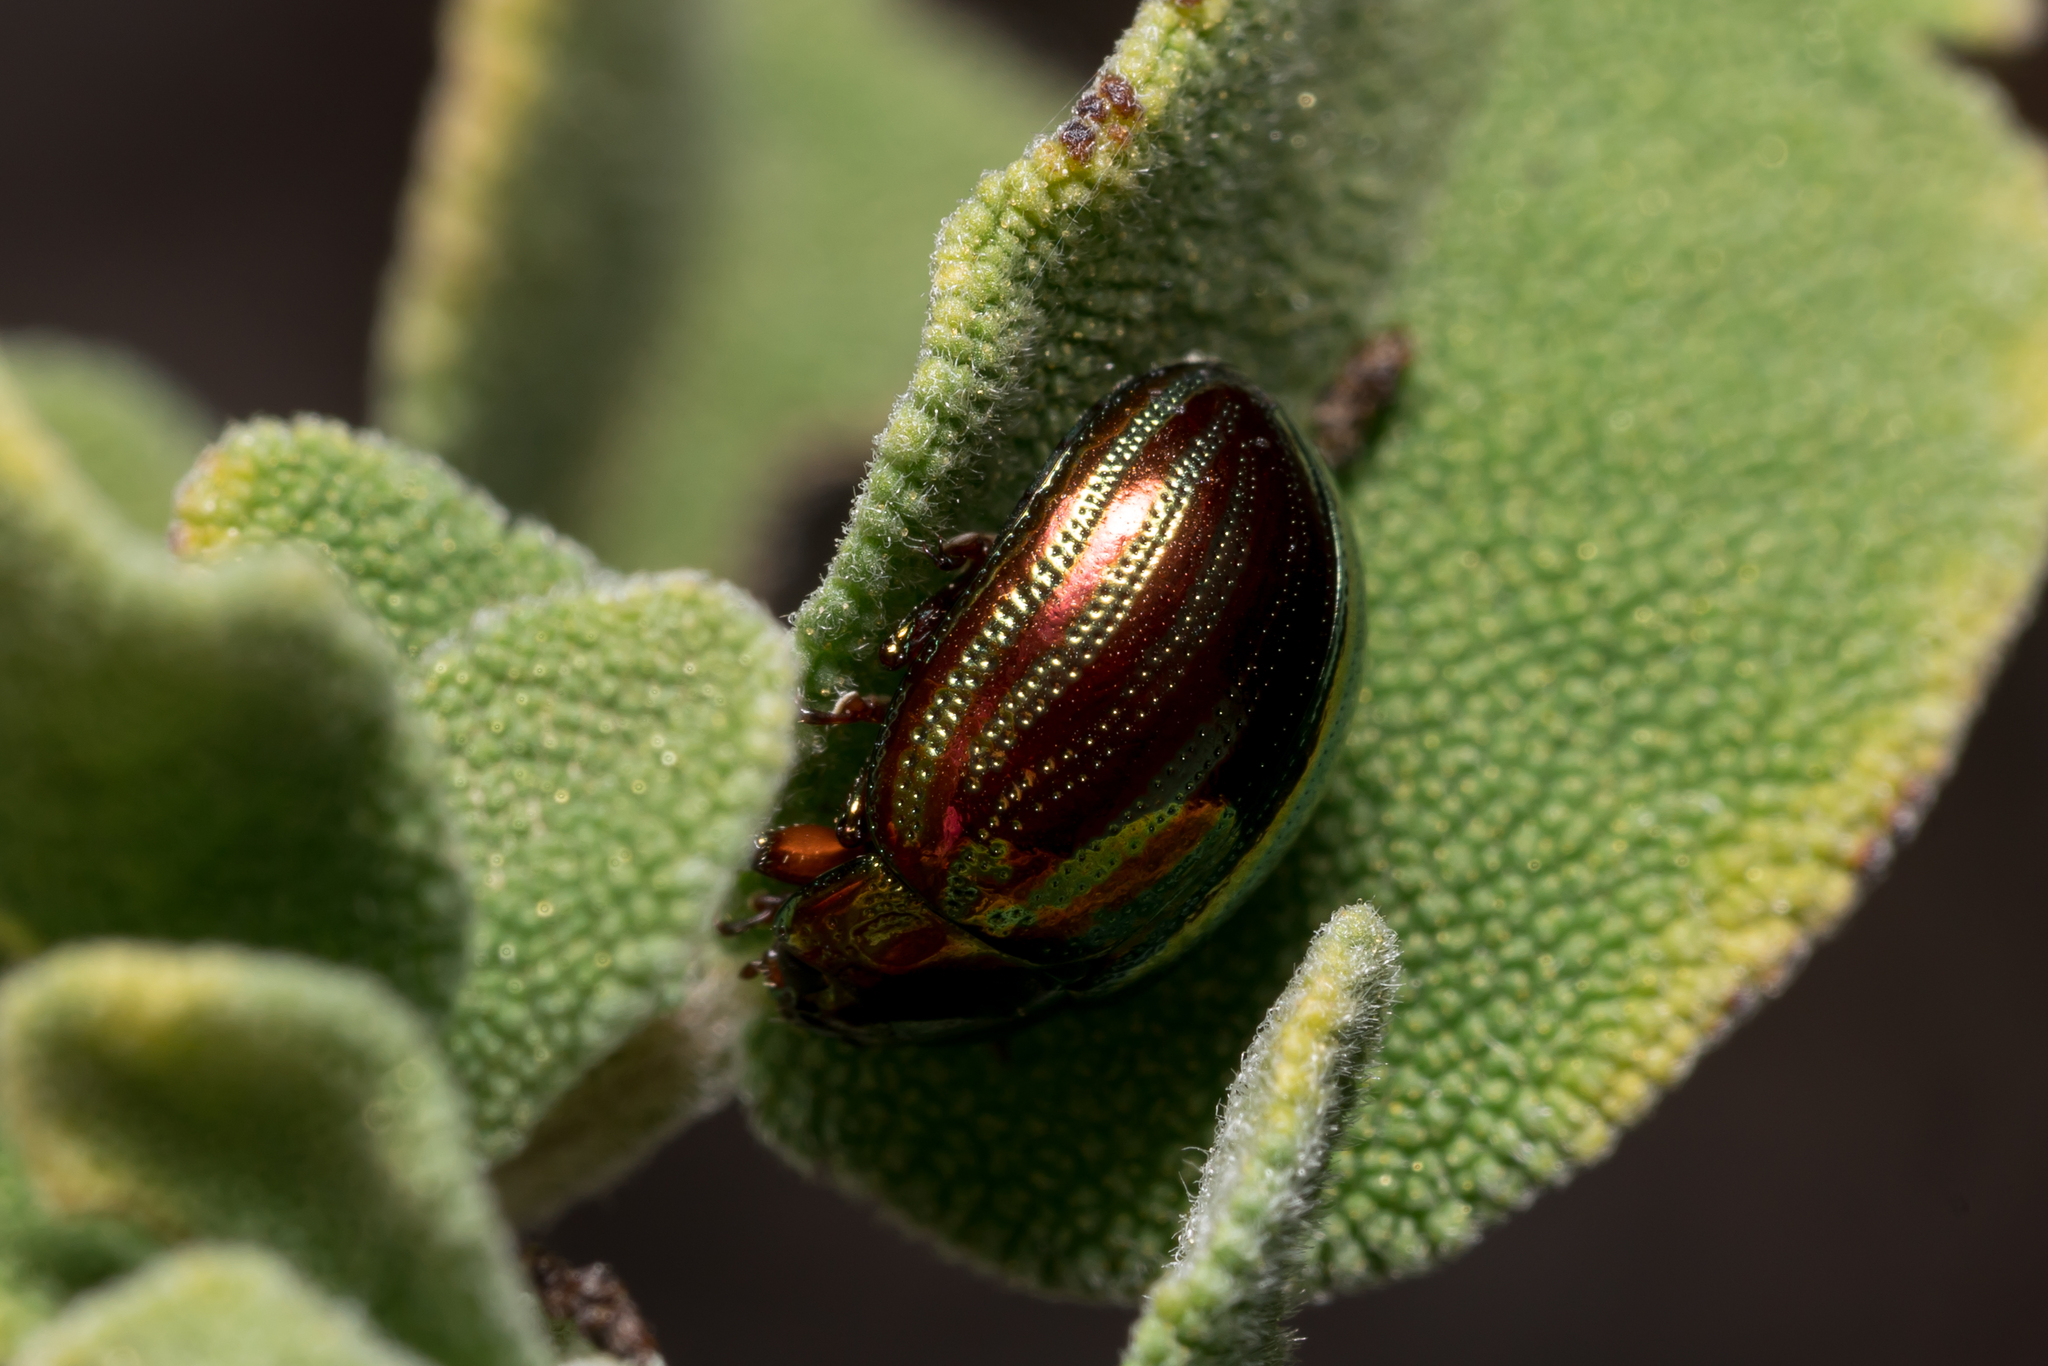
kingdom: Animalia
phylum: Arthropoda
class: Insecta
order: Coleoptera
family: Chrysomelidae
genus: Chrysolina
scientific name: Chrysolina americana
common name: Rosemary beetle
